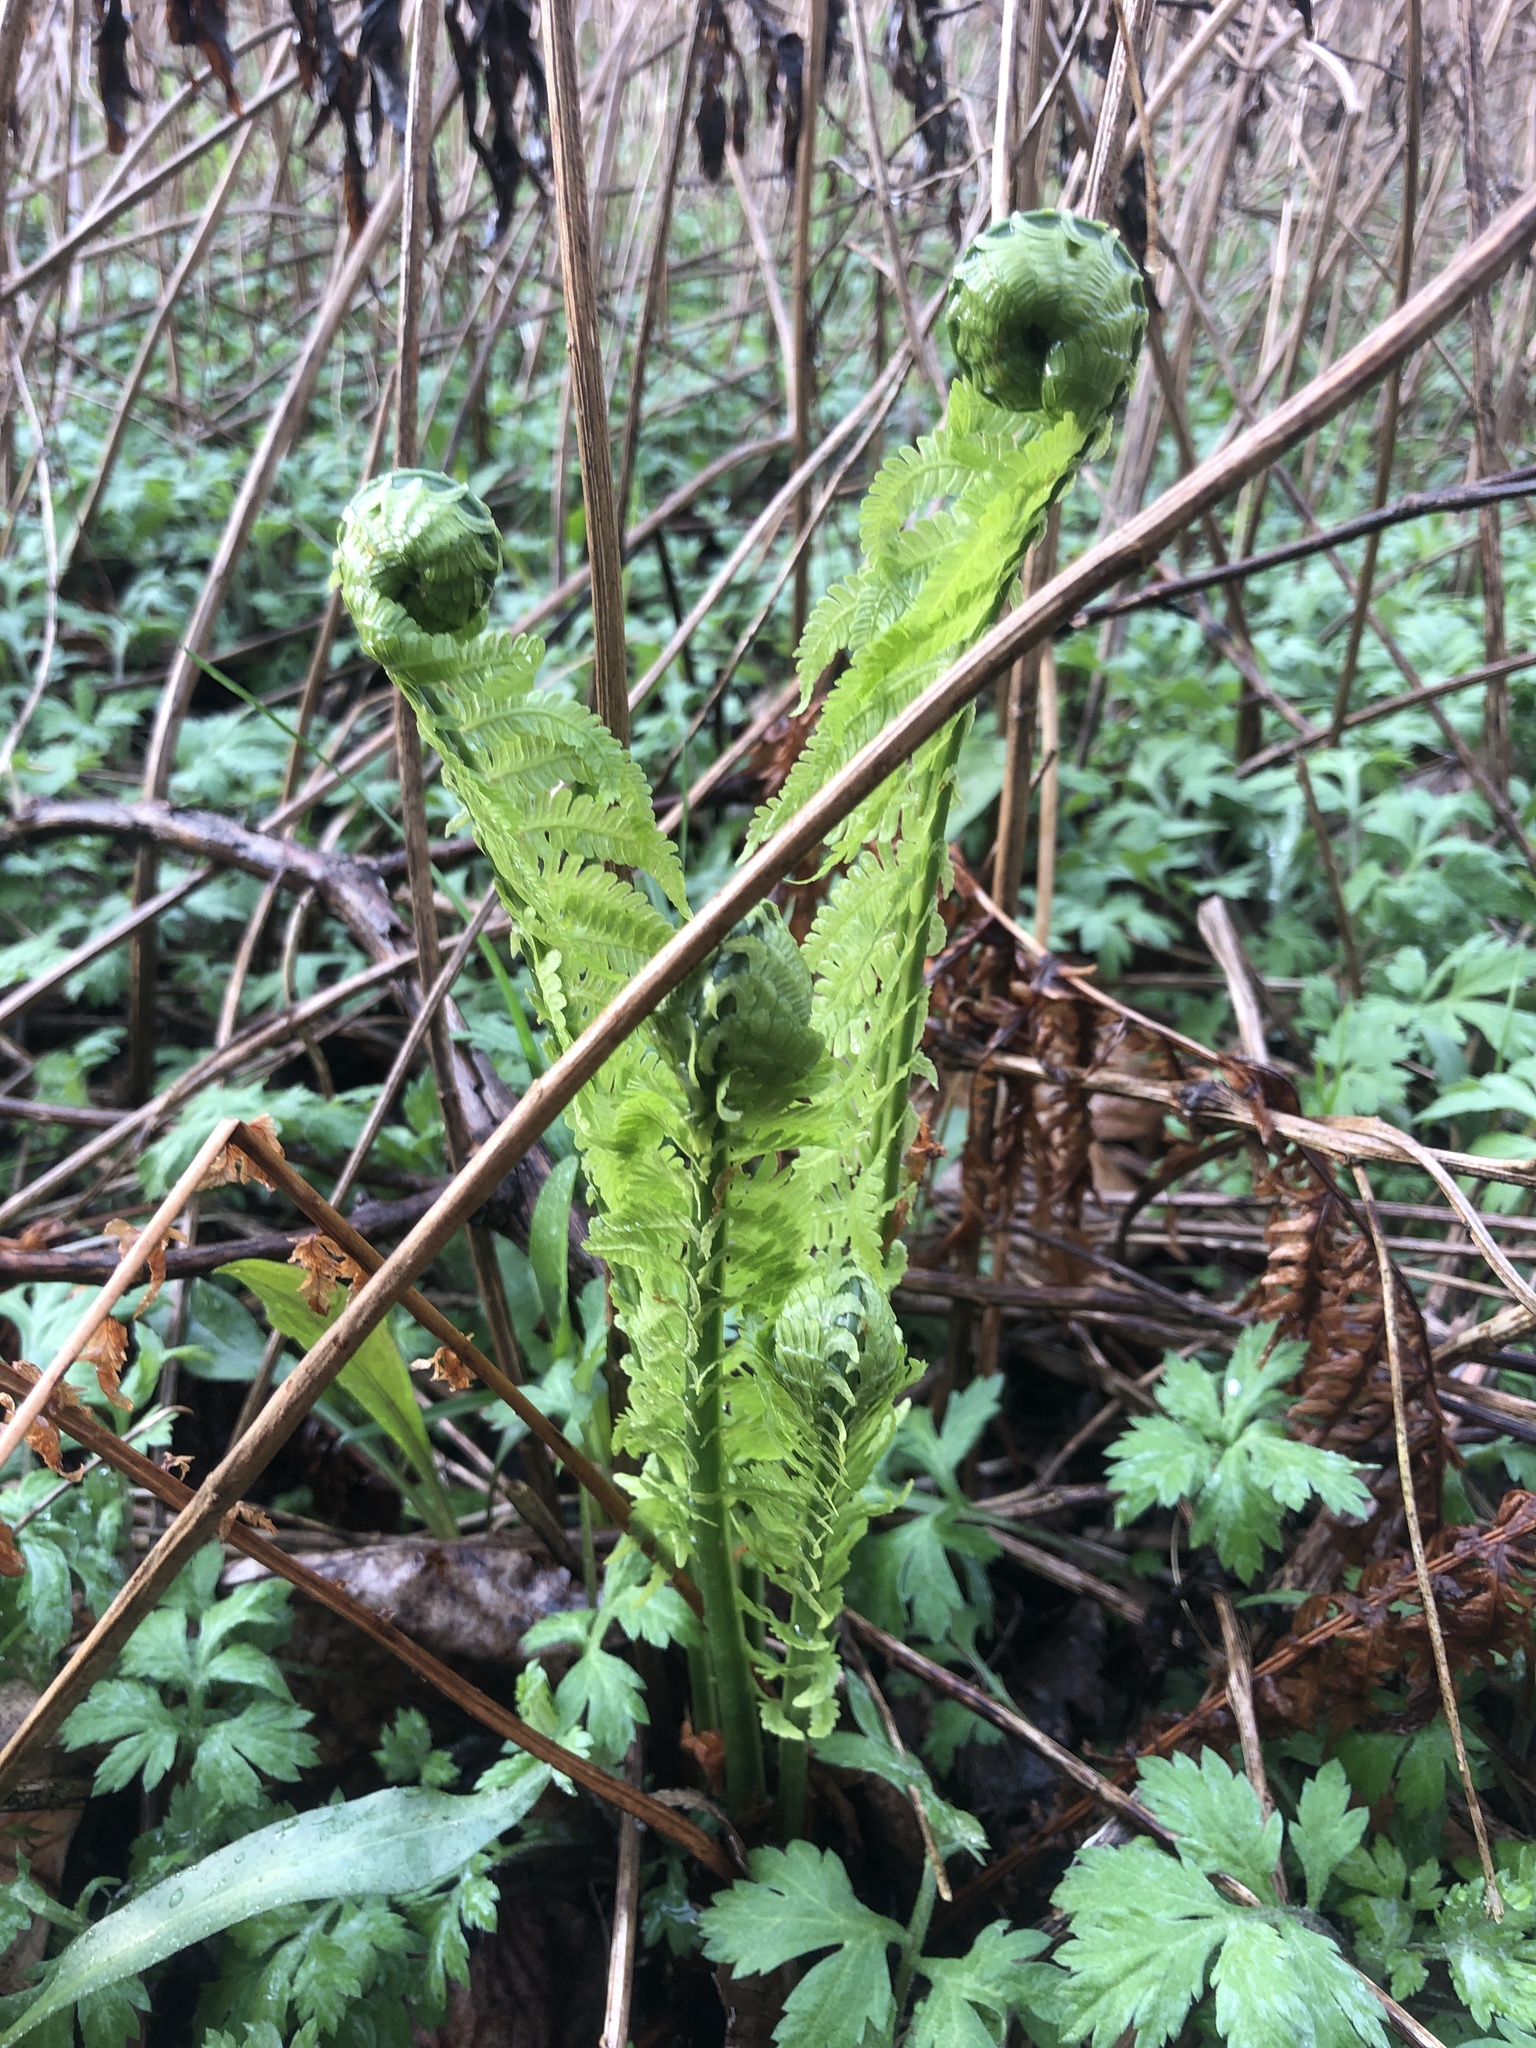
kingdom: Plantae
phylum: Tracheophyta
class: Polypodiopsida
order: Polypodiales
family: Onocleaceae
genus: Matteuccia
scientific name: Matteuccia struthiopteris
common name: Ostrich fern
